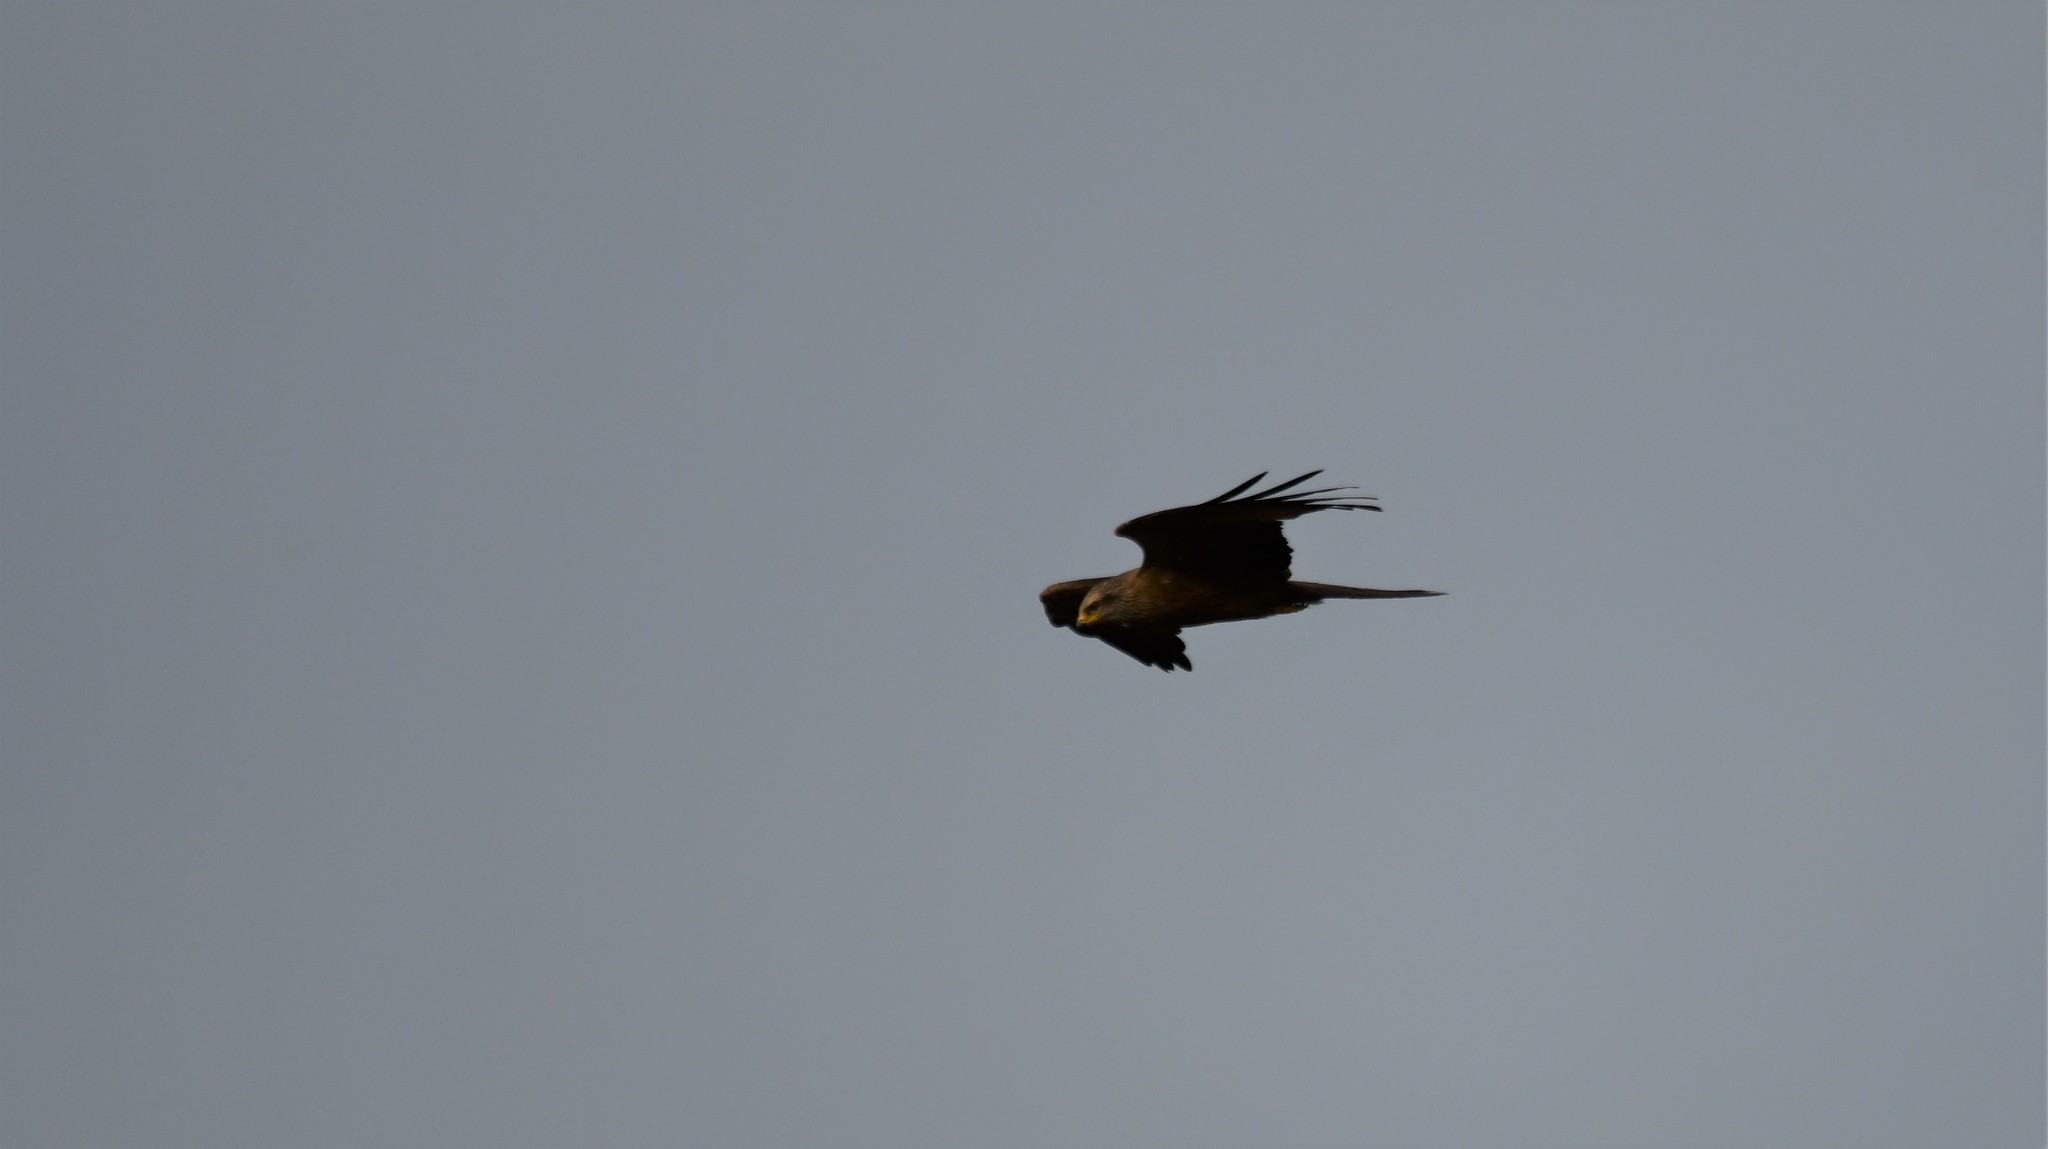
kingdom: Animalia
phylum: Chordata
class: Aves
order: Accipitriformes
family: Accipitridae
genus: Milvus
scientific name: Milvus migrans
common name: Black kite
